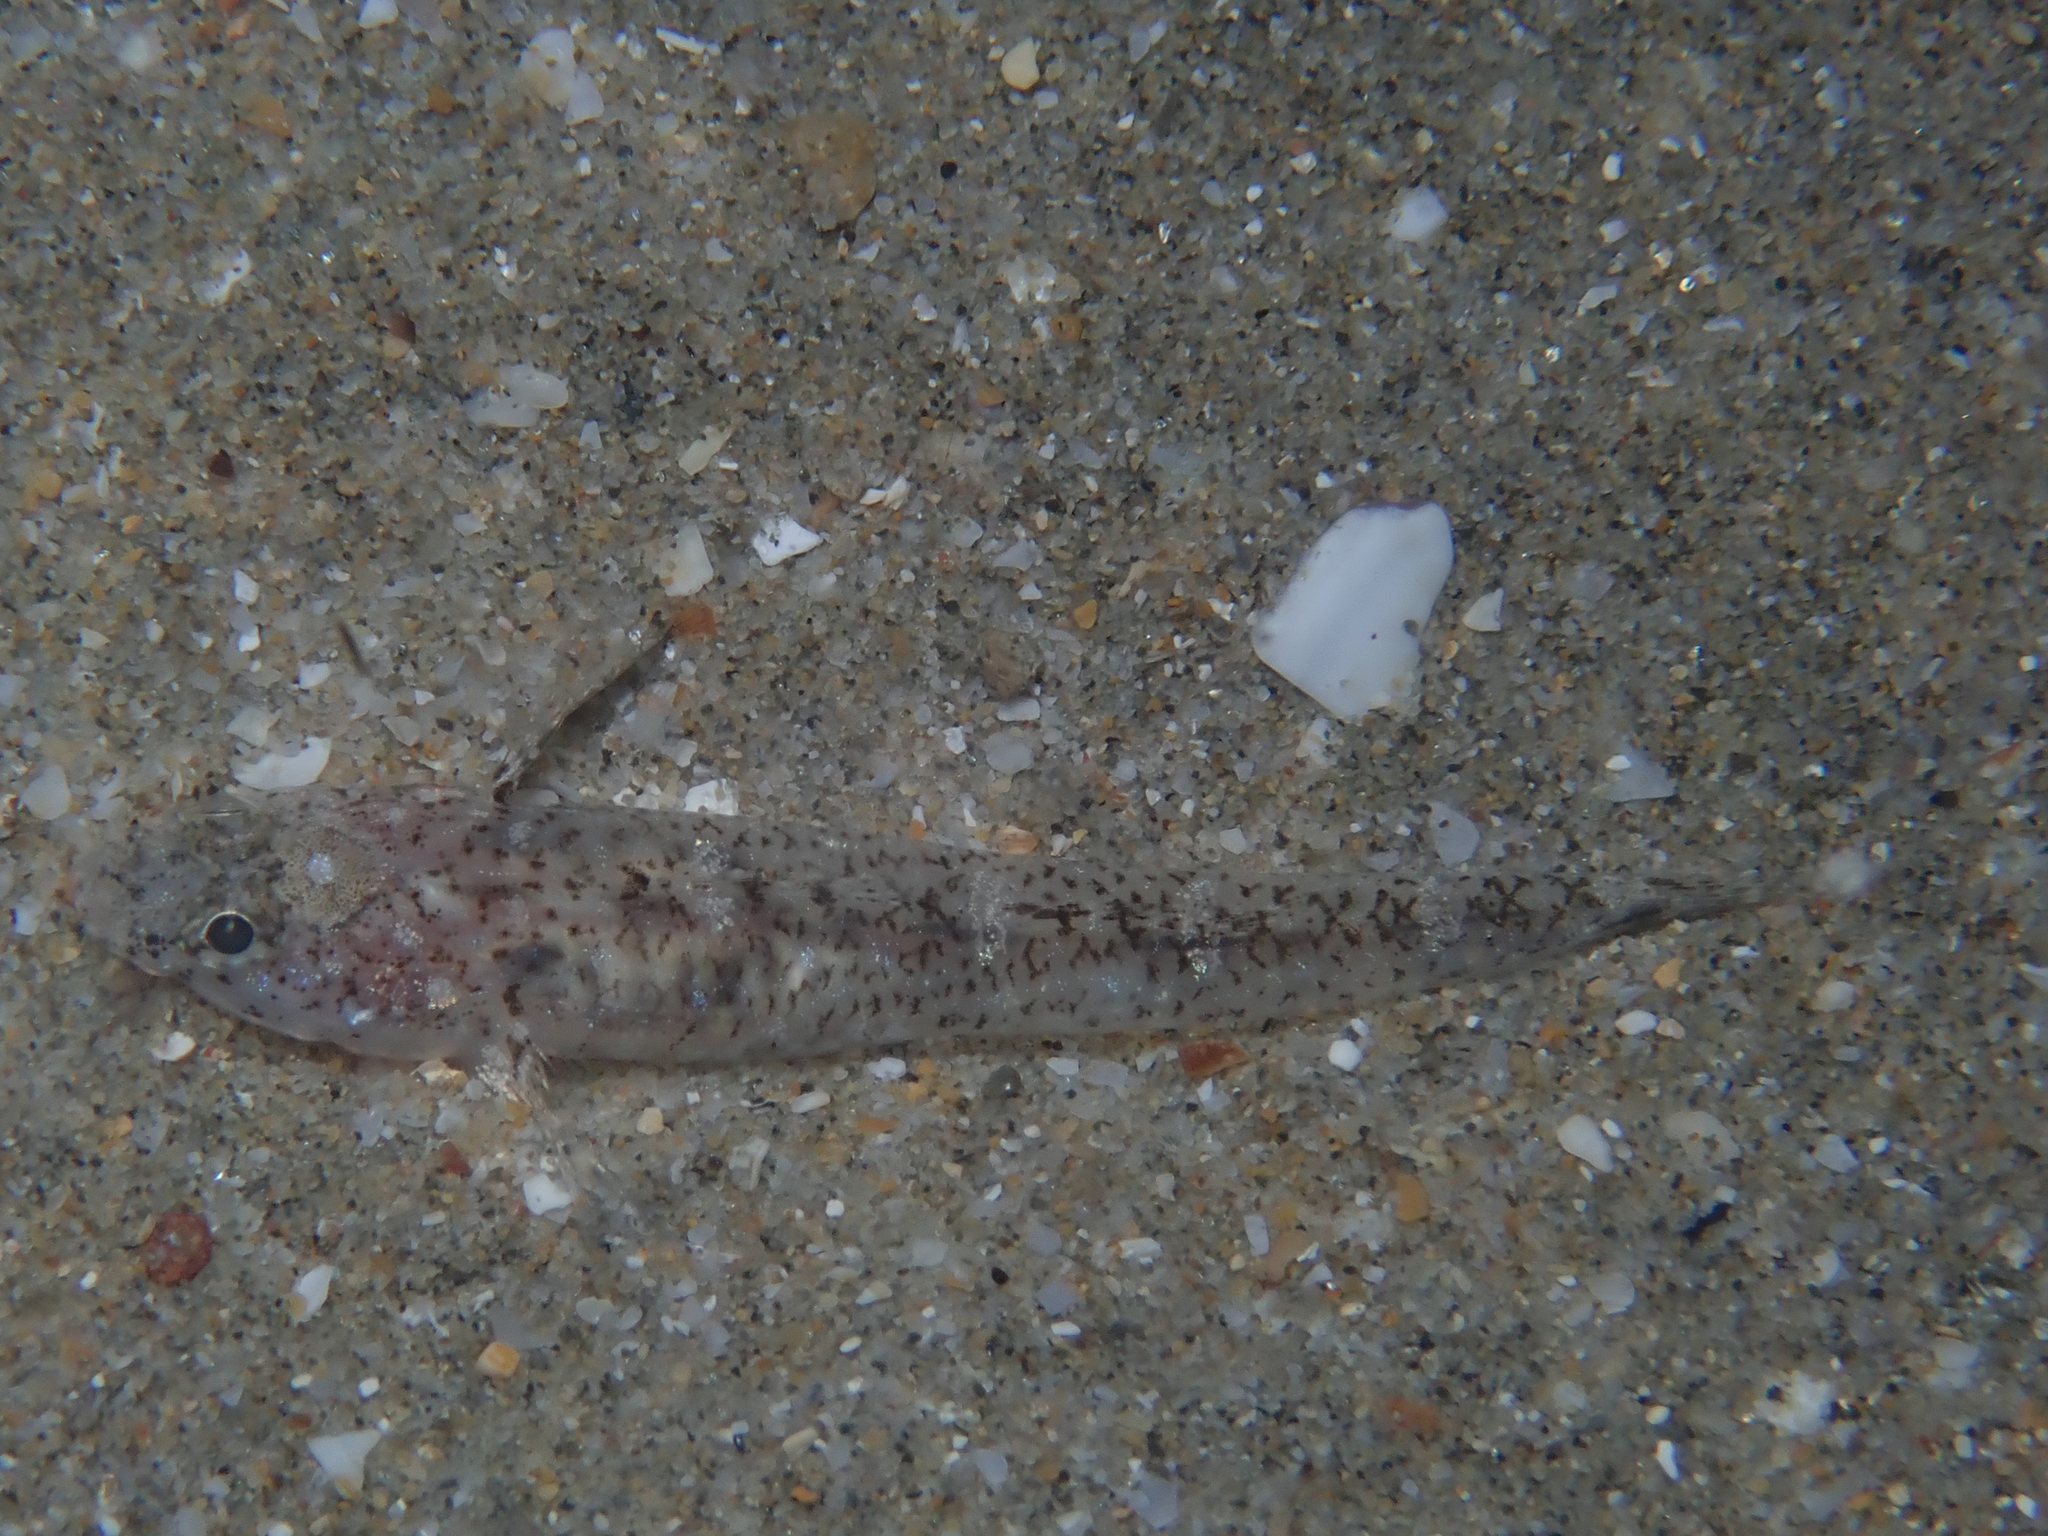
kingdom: Animalia
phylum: Chordata
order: Perciformes
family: Gobiidae
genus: Pomatoschistus
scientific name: Pomatoschistus marmoratus
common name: Marbled goby
